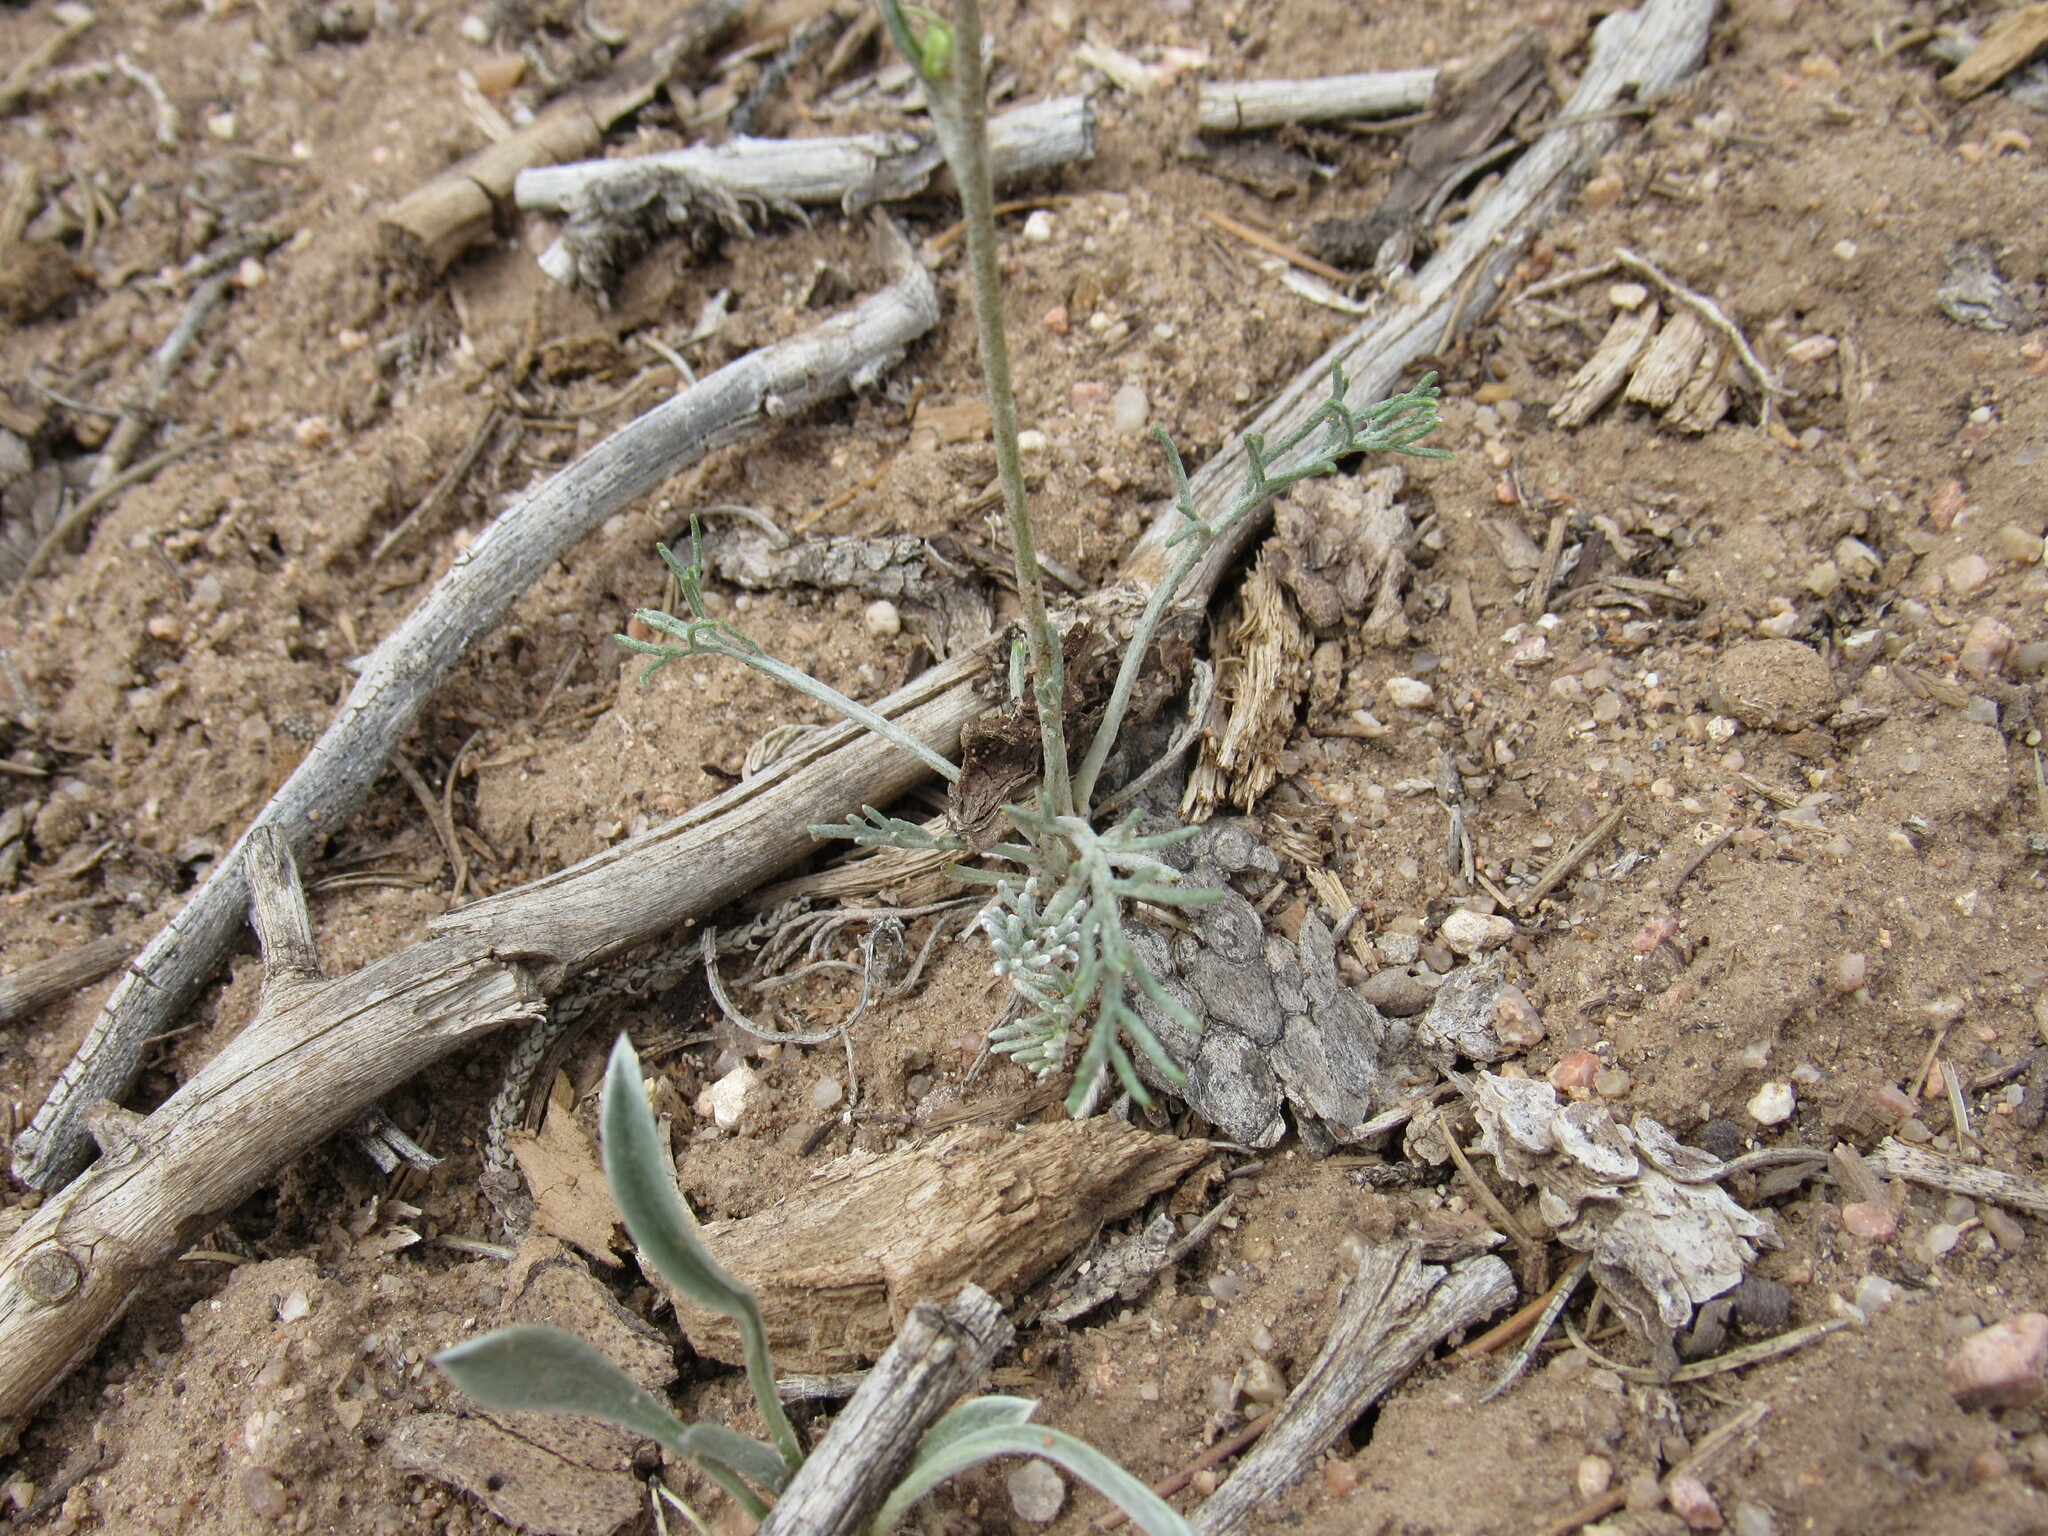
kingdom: Plantae
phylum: Tracheophyta
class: Magnoliopsida
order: Asterales
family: Asteraceae
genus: Hymenopappus
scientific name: Hymenopappus filifolius
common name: Columbia cutleaf
